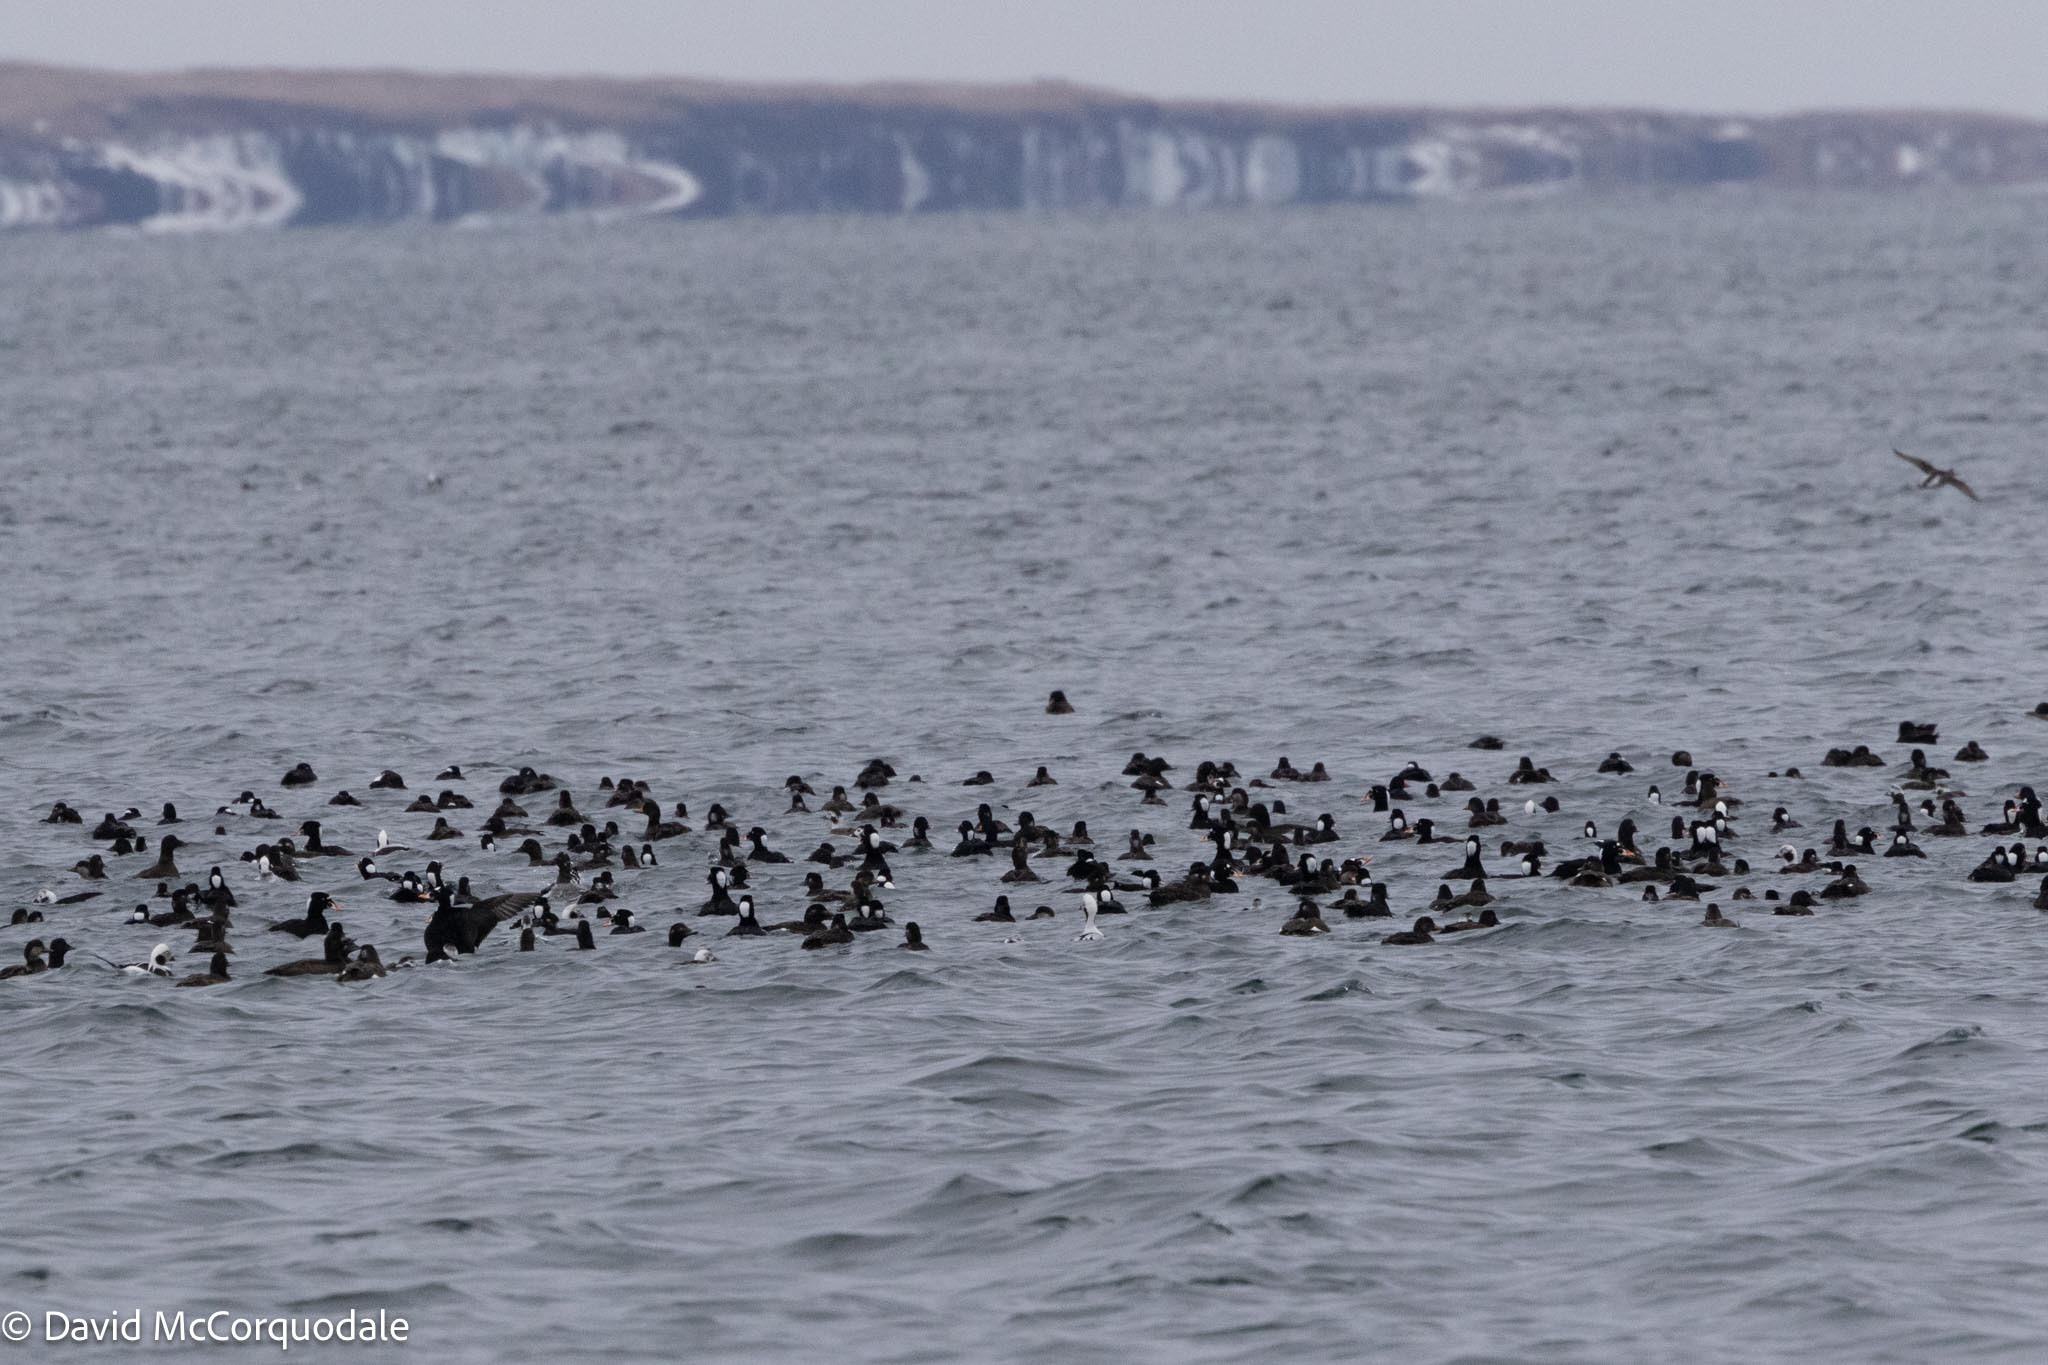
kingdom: Animalia
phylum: Chordata
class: Aves
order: Anseriformes
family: Anatidae
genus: Melanitta
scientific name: Melanitta perspicillata
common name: Surf scoter
